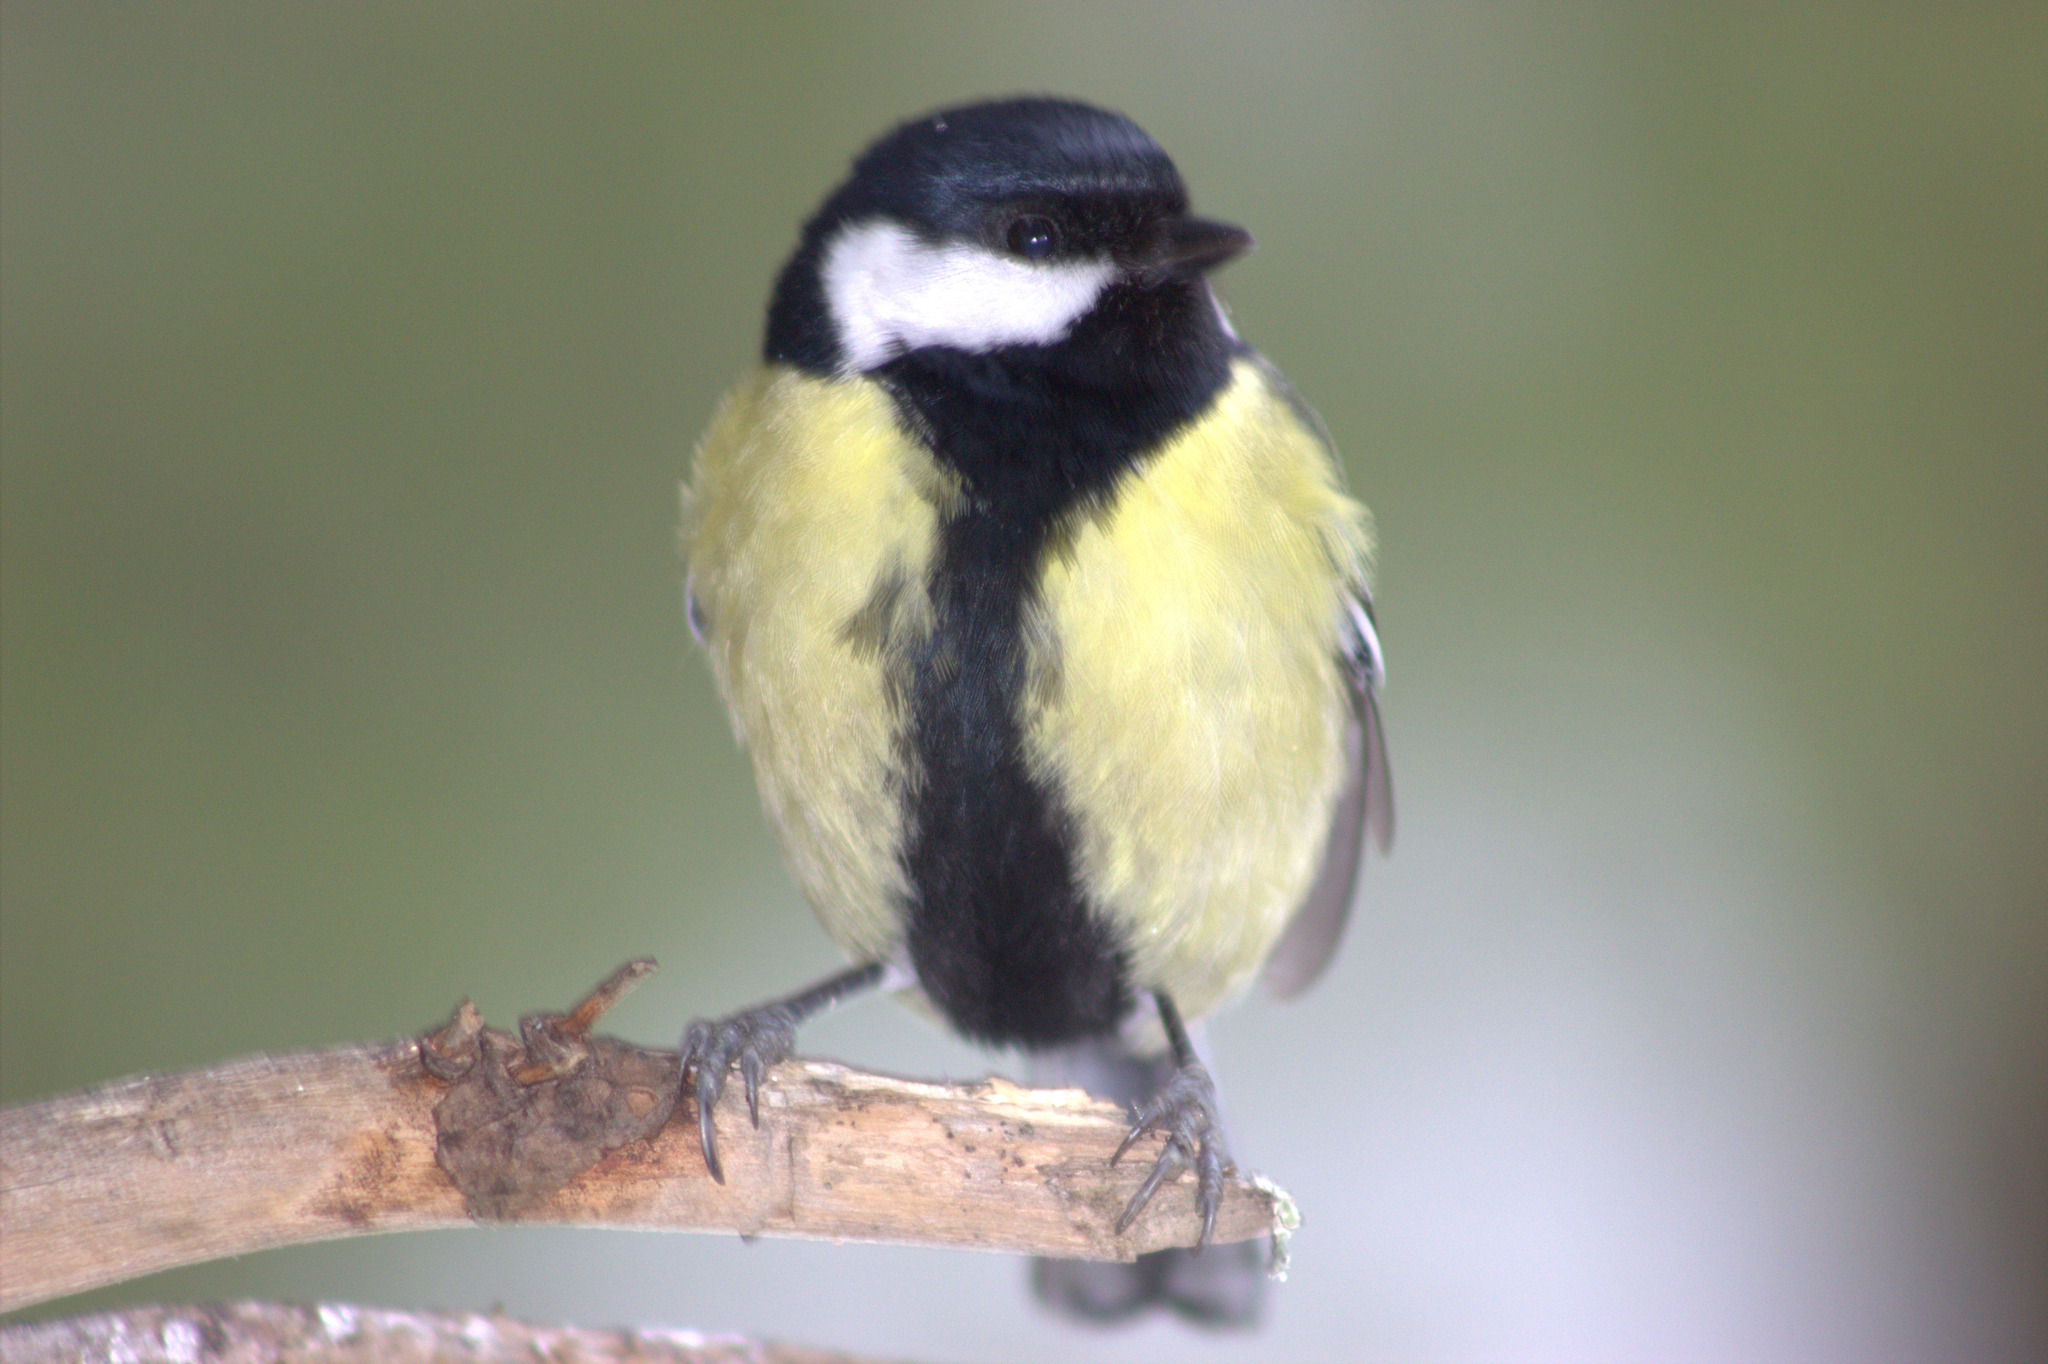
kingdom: Animalia
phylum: Chordata
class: Aves
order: Passeriformes
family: Paridae
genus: Parus
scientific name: Parus major
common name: Great tit
